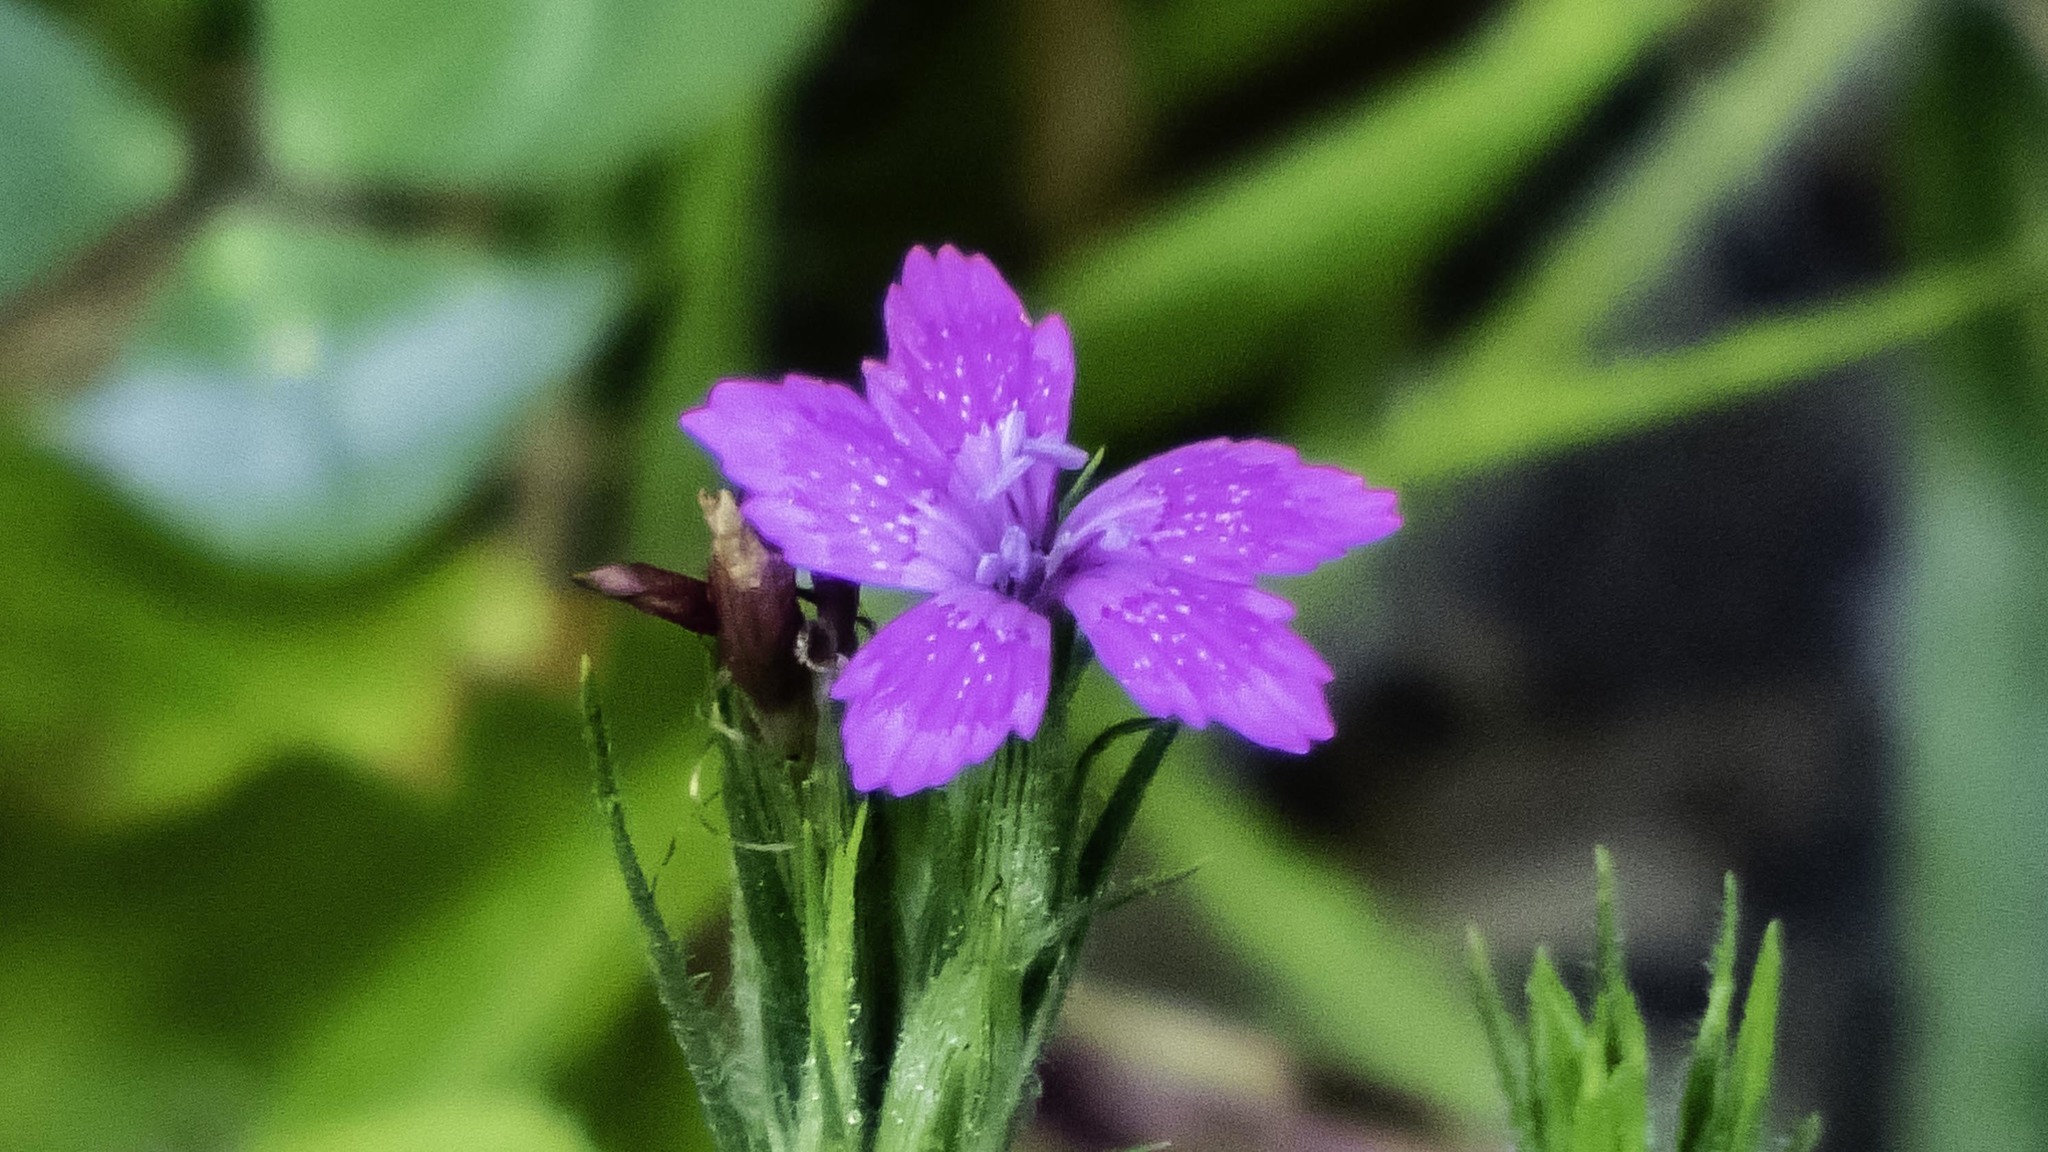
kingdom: Plantae
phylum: Tracheophyta
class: Magnoliopsida
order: Caryophyllales
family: Caryophyllaceae
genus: Dianthus
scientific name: Dianthus armeria
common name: Deptford pink
